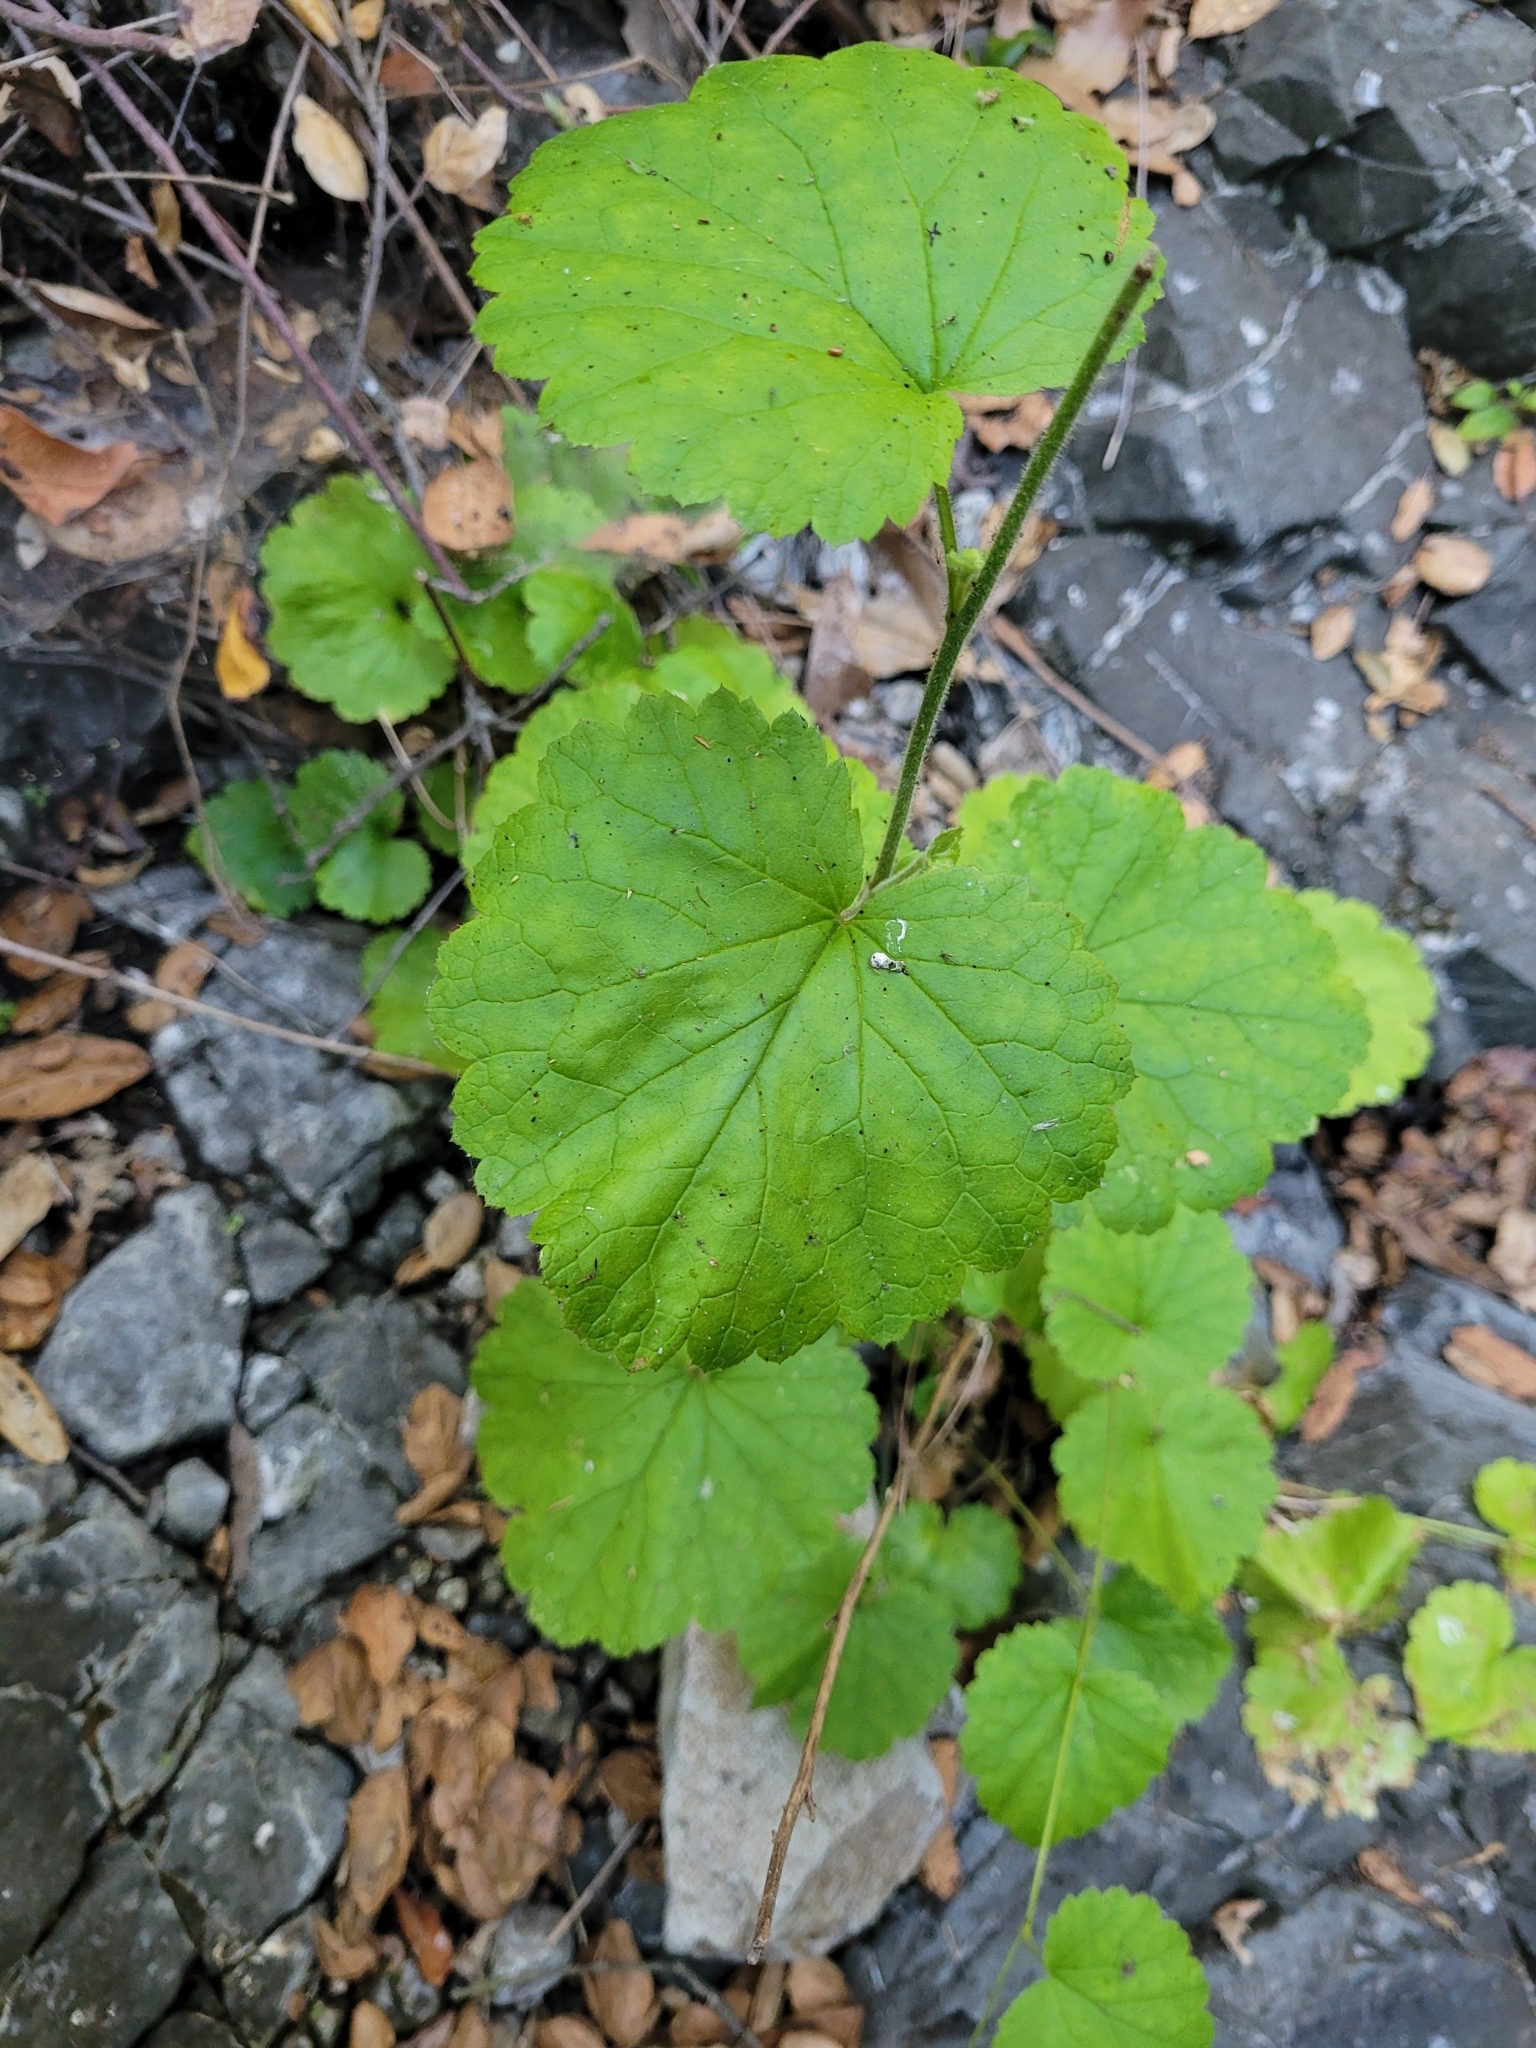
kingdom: Plantae
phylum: Tracheophyta
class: Magnoliopsida
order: Saxifragales
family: Saxifragaceae
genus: Boykinia
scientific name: Boykinia rotundifolia
